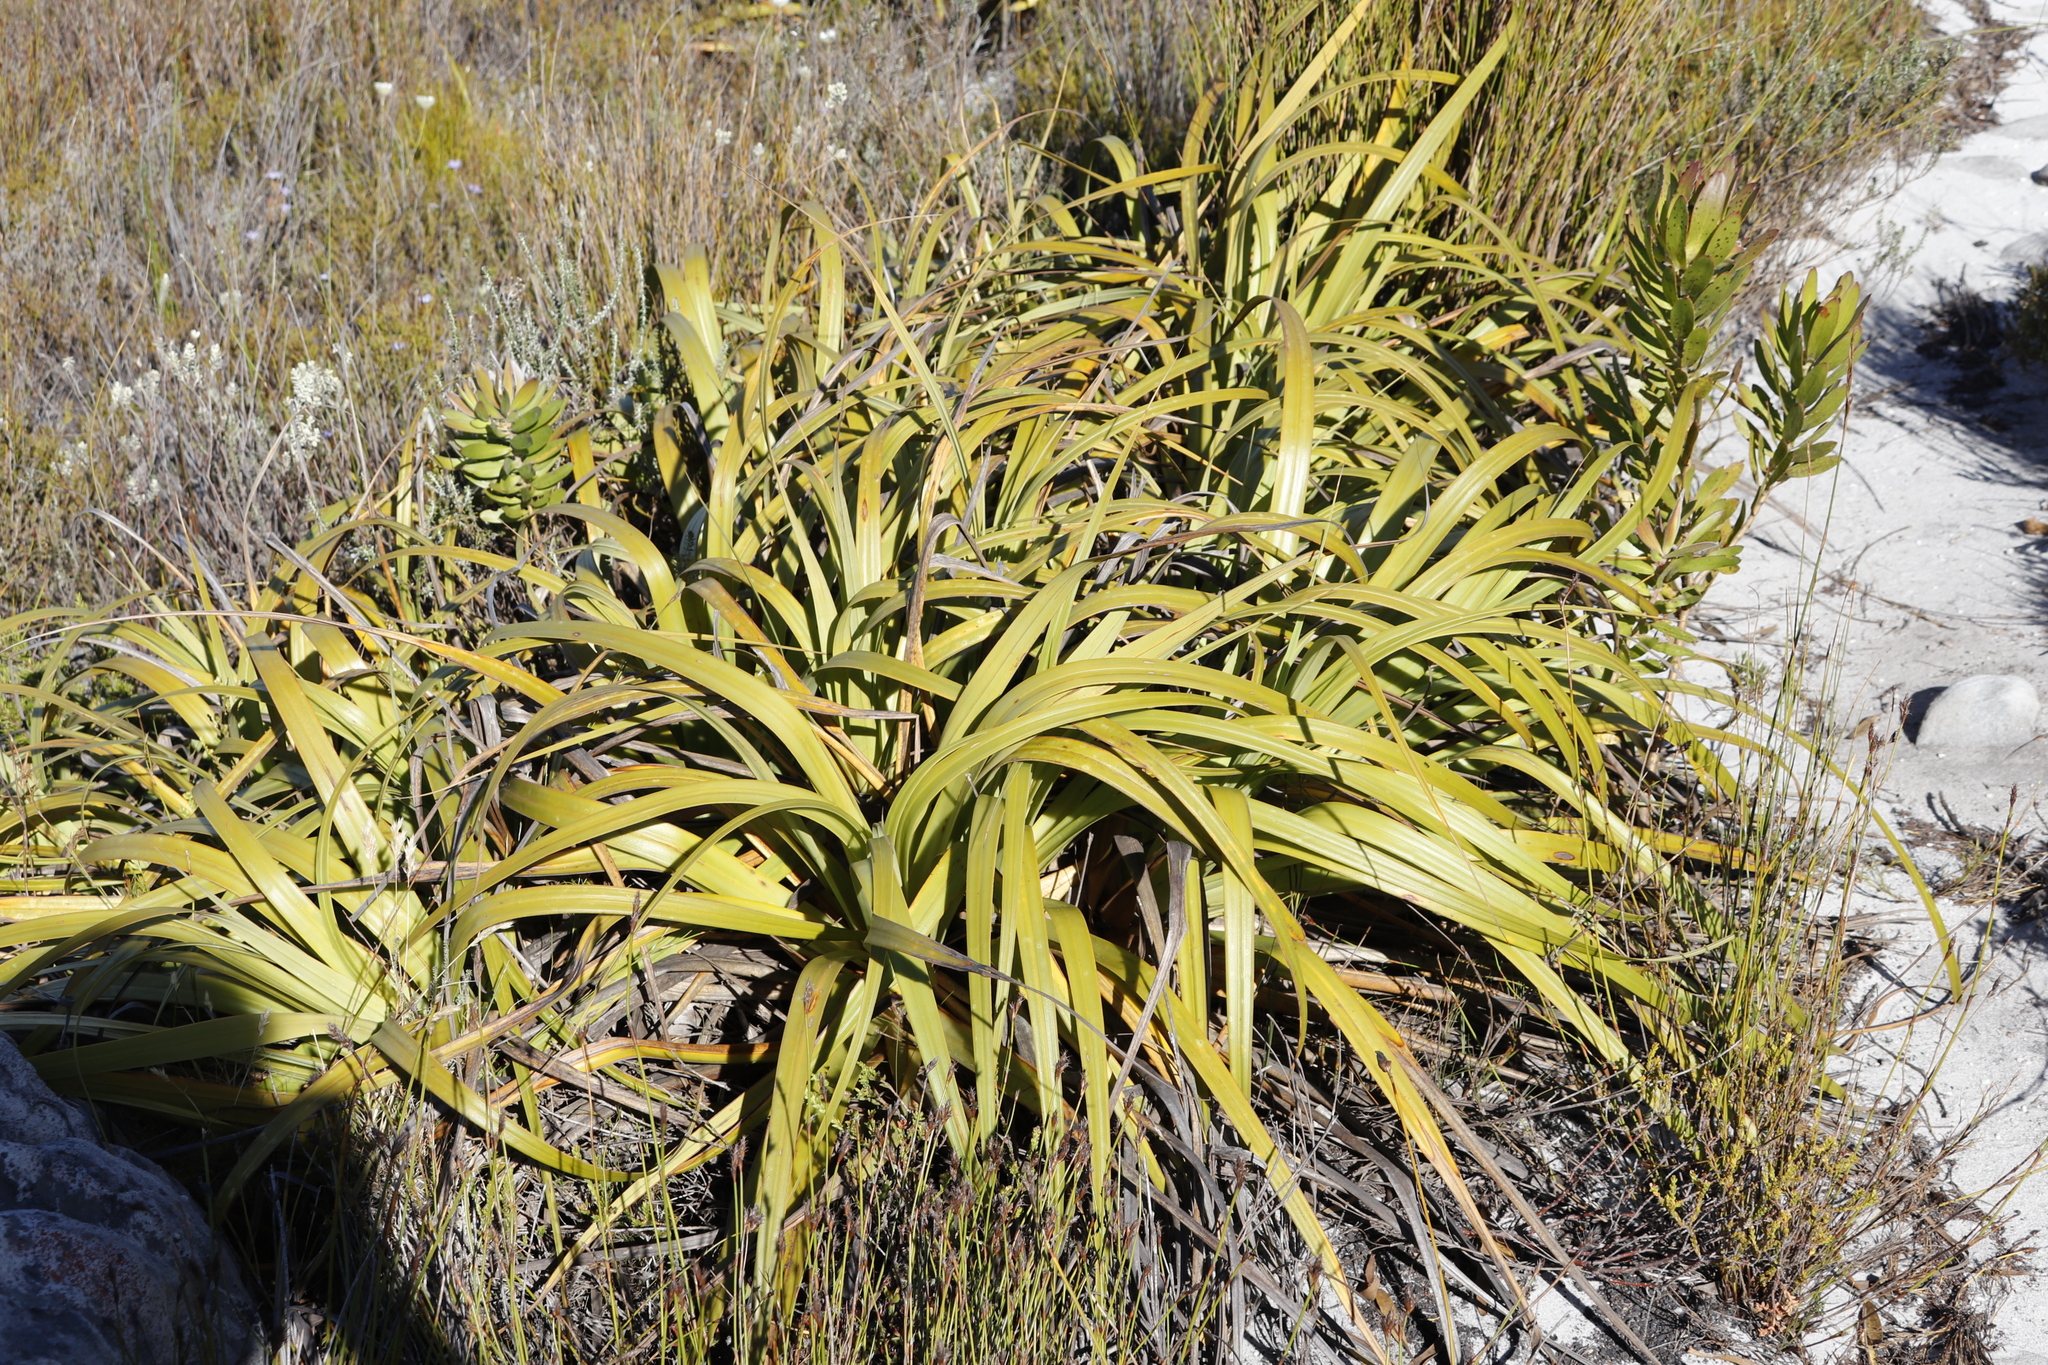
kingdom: Plantae
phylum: Tracheophyta
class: Liliopsida
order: Poales
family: Cyperaceae
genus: Tetraria
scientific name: Tetraria thermalis
